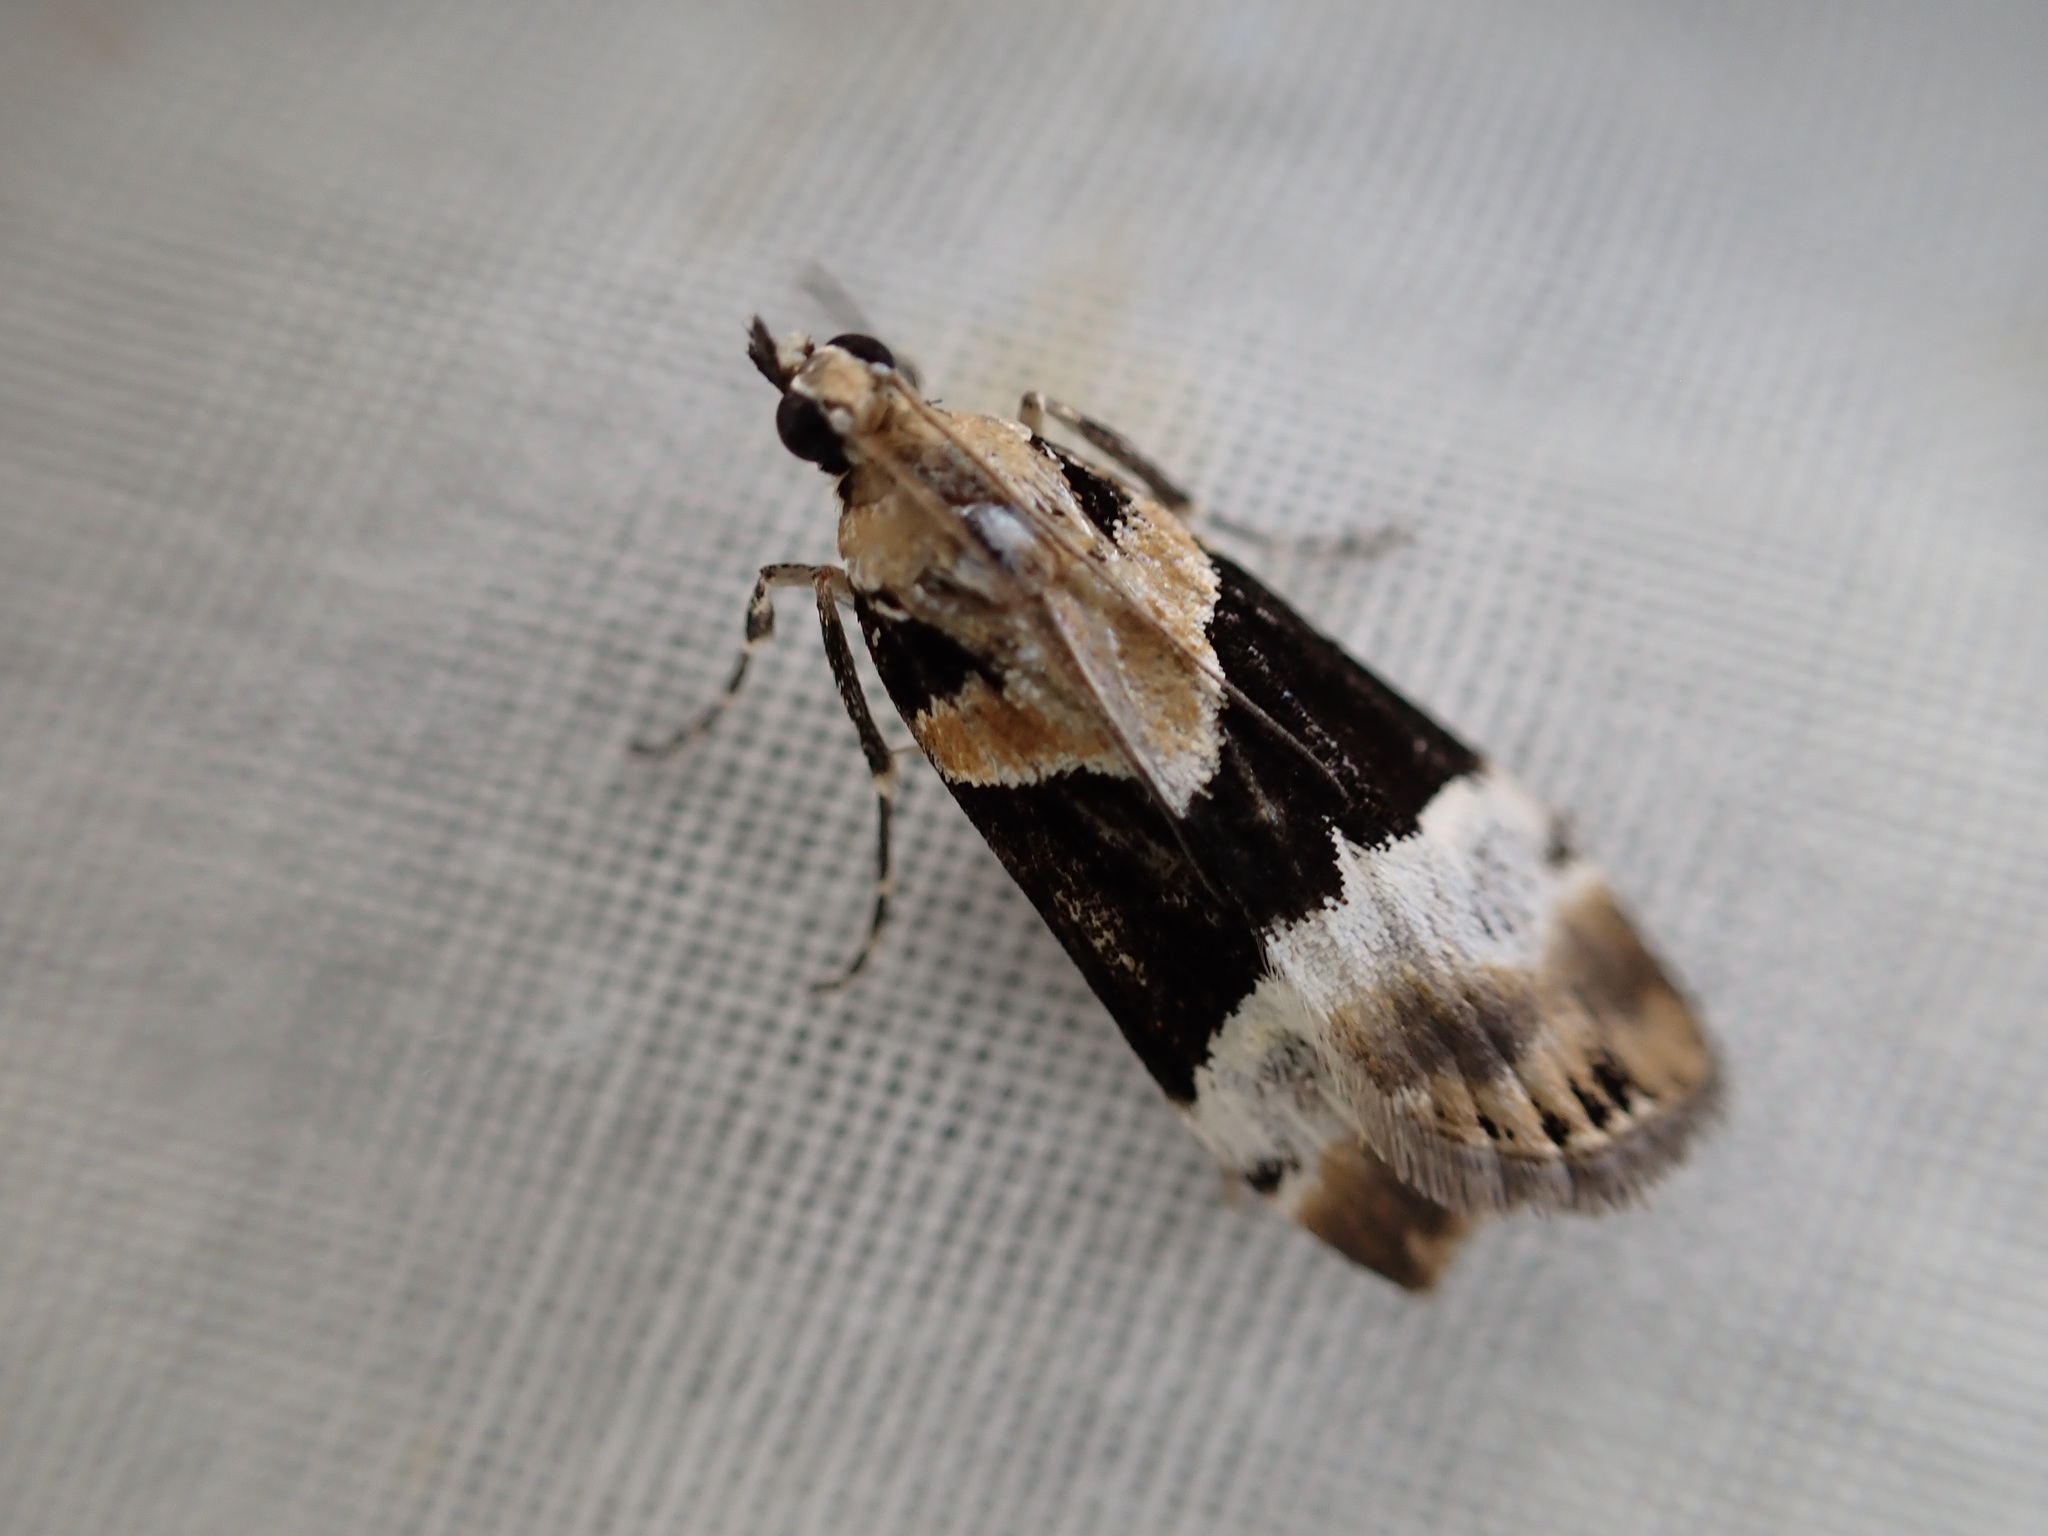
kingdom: Animalia
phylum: Arthropoda
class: Insecta
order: Lepidoptera
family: Crambidae
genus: Eudonia
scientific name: Eudonia aspidota
